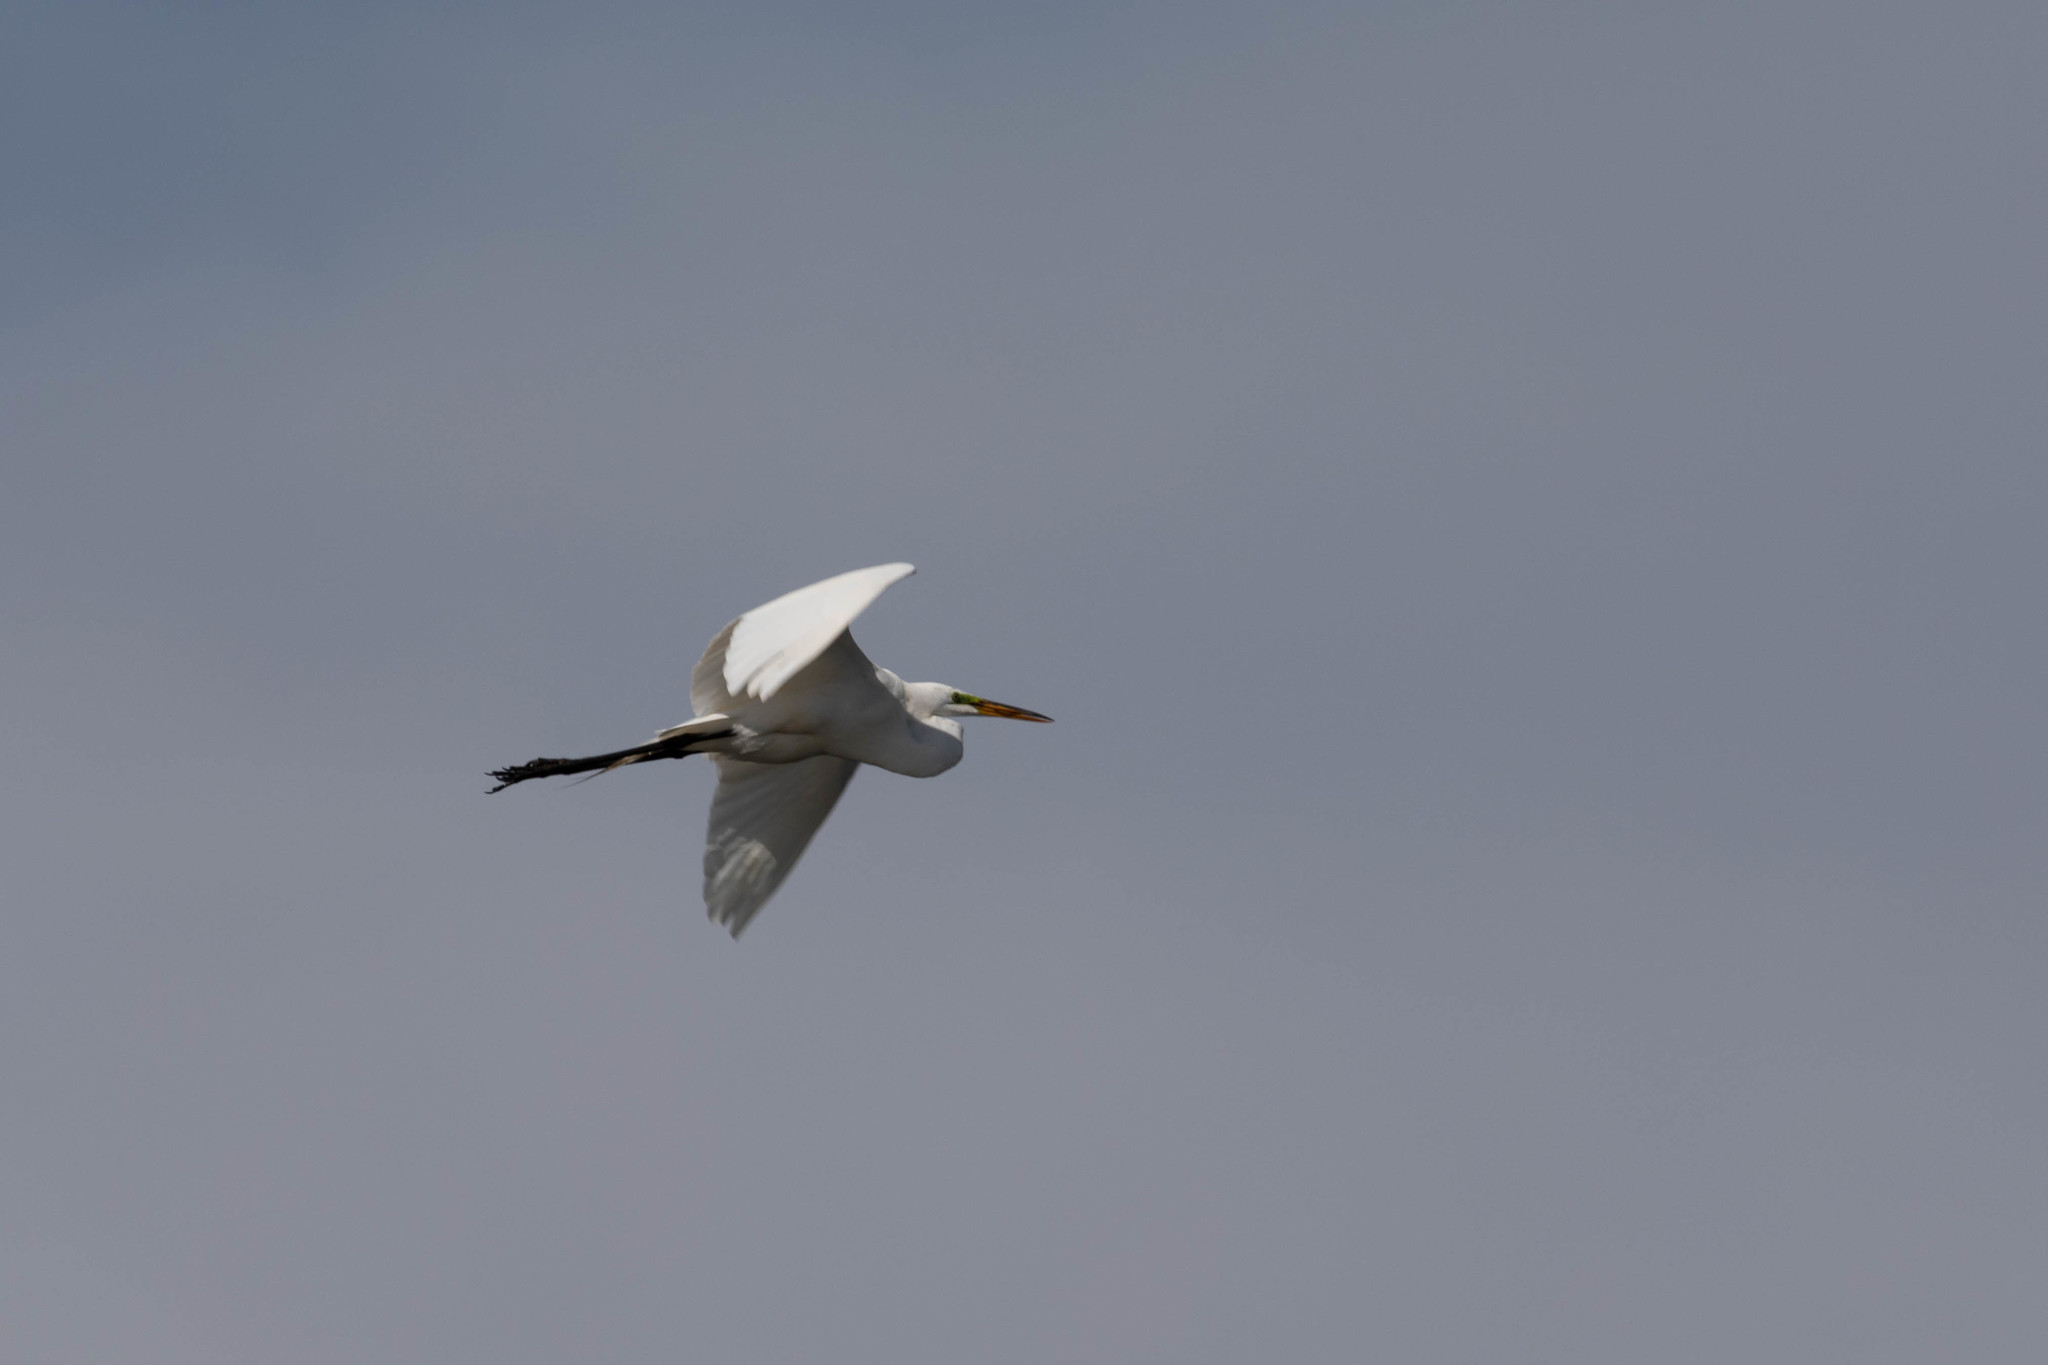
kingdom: Animalia
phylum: Chordata
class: Aves
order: Pelecaniformes
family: Ardeidae
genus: Ardea
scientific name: Ardea alba
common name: Great egret
